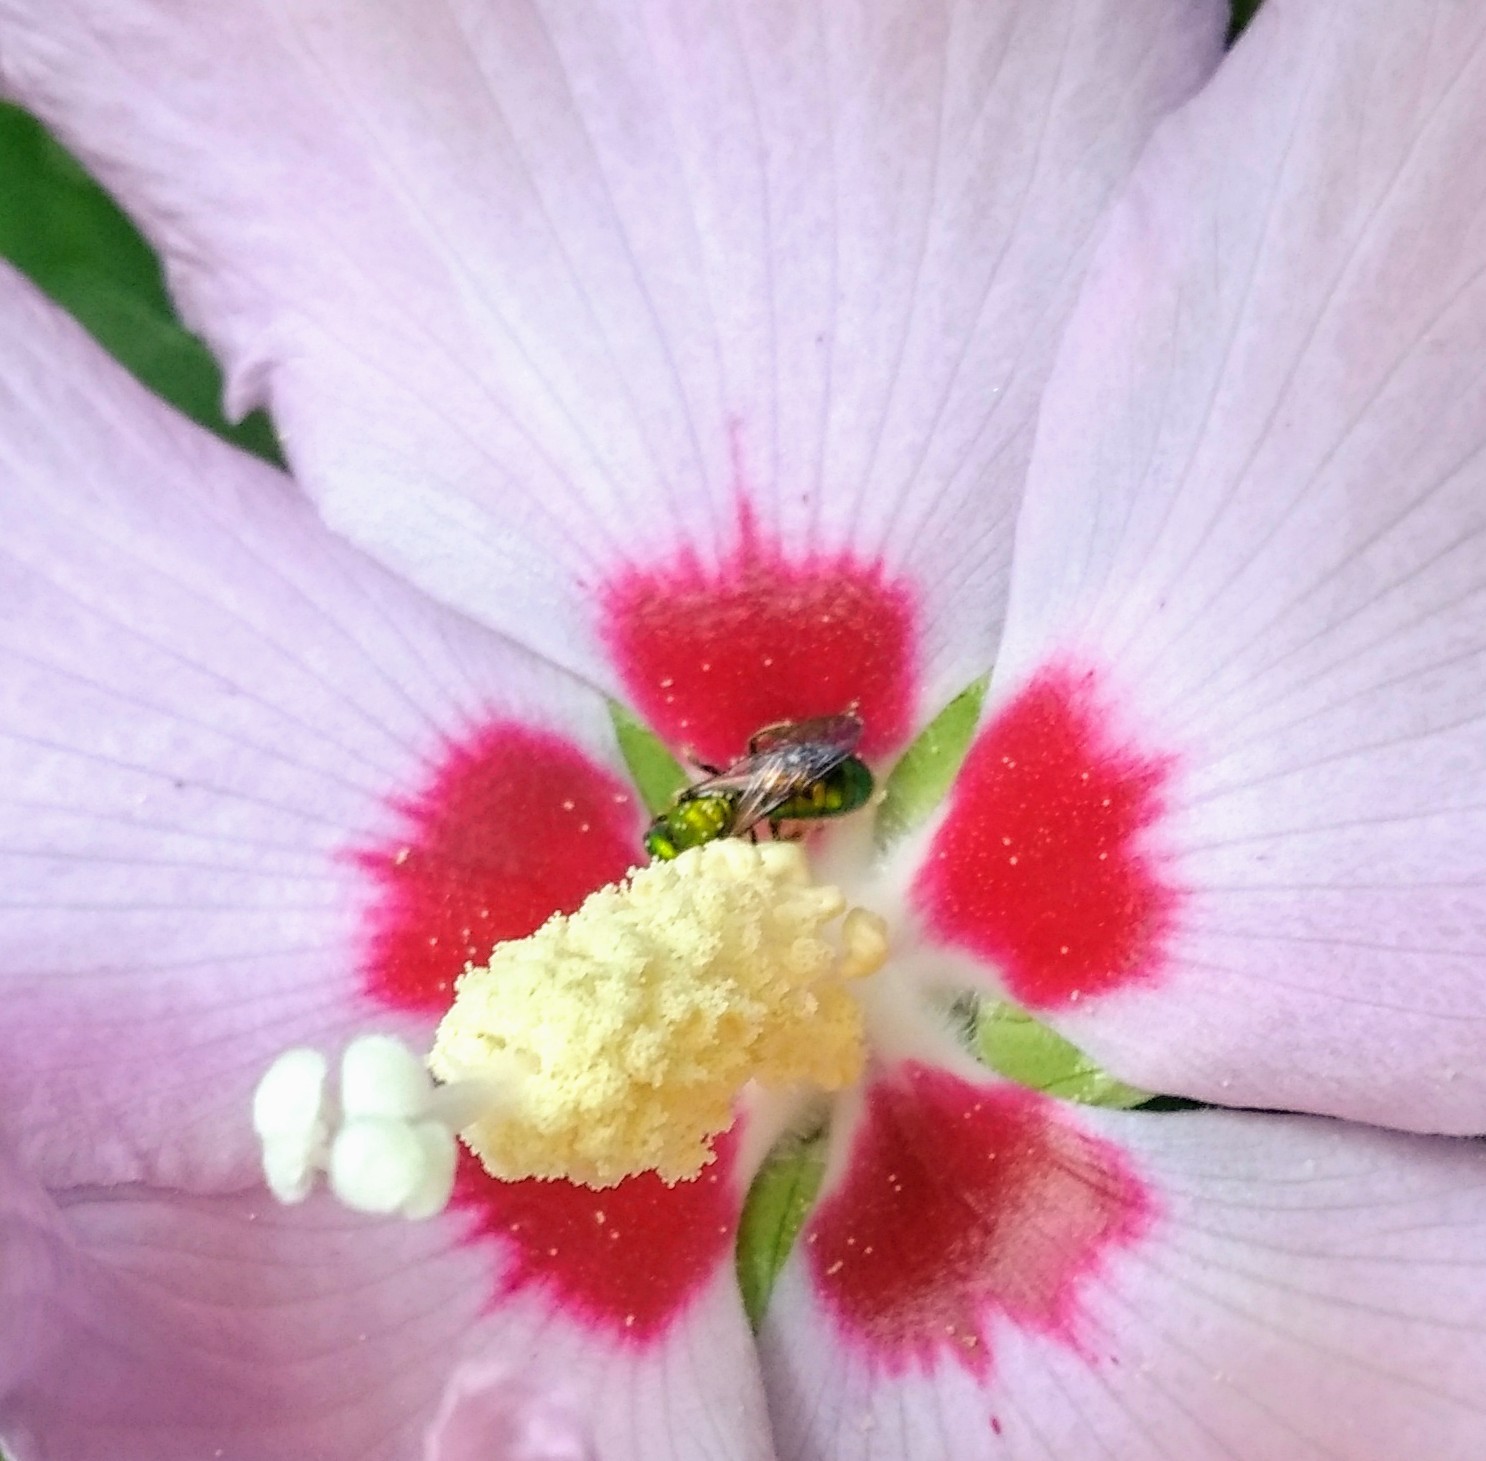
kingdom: Animalia
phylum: Arthropoda
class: Insecta
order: Hymenoptera
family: Halictidae
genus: Augochlora
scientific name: Augochlora pura
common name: Pure green sweat bee
